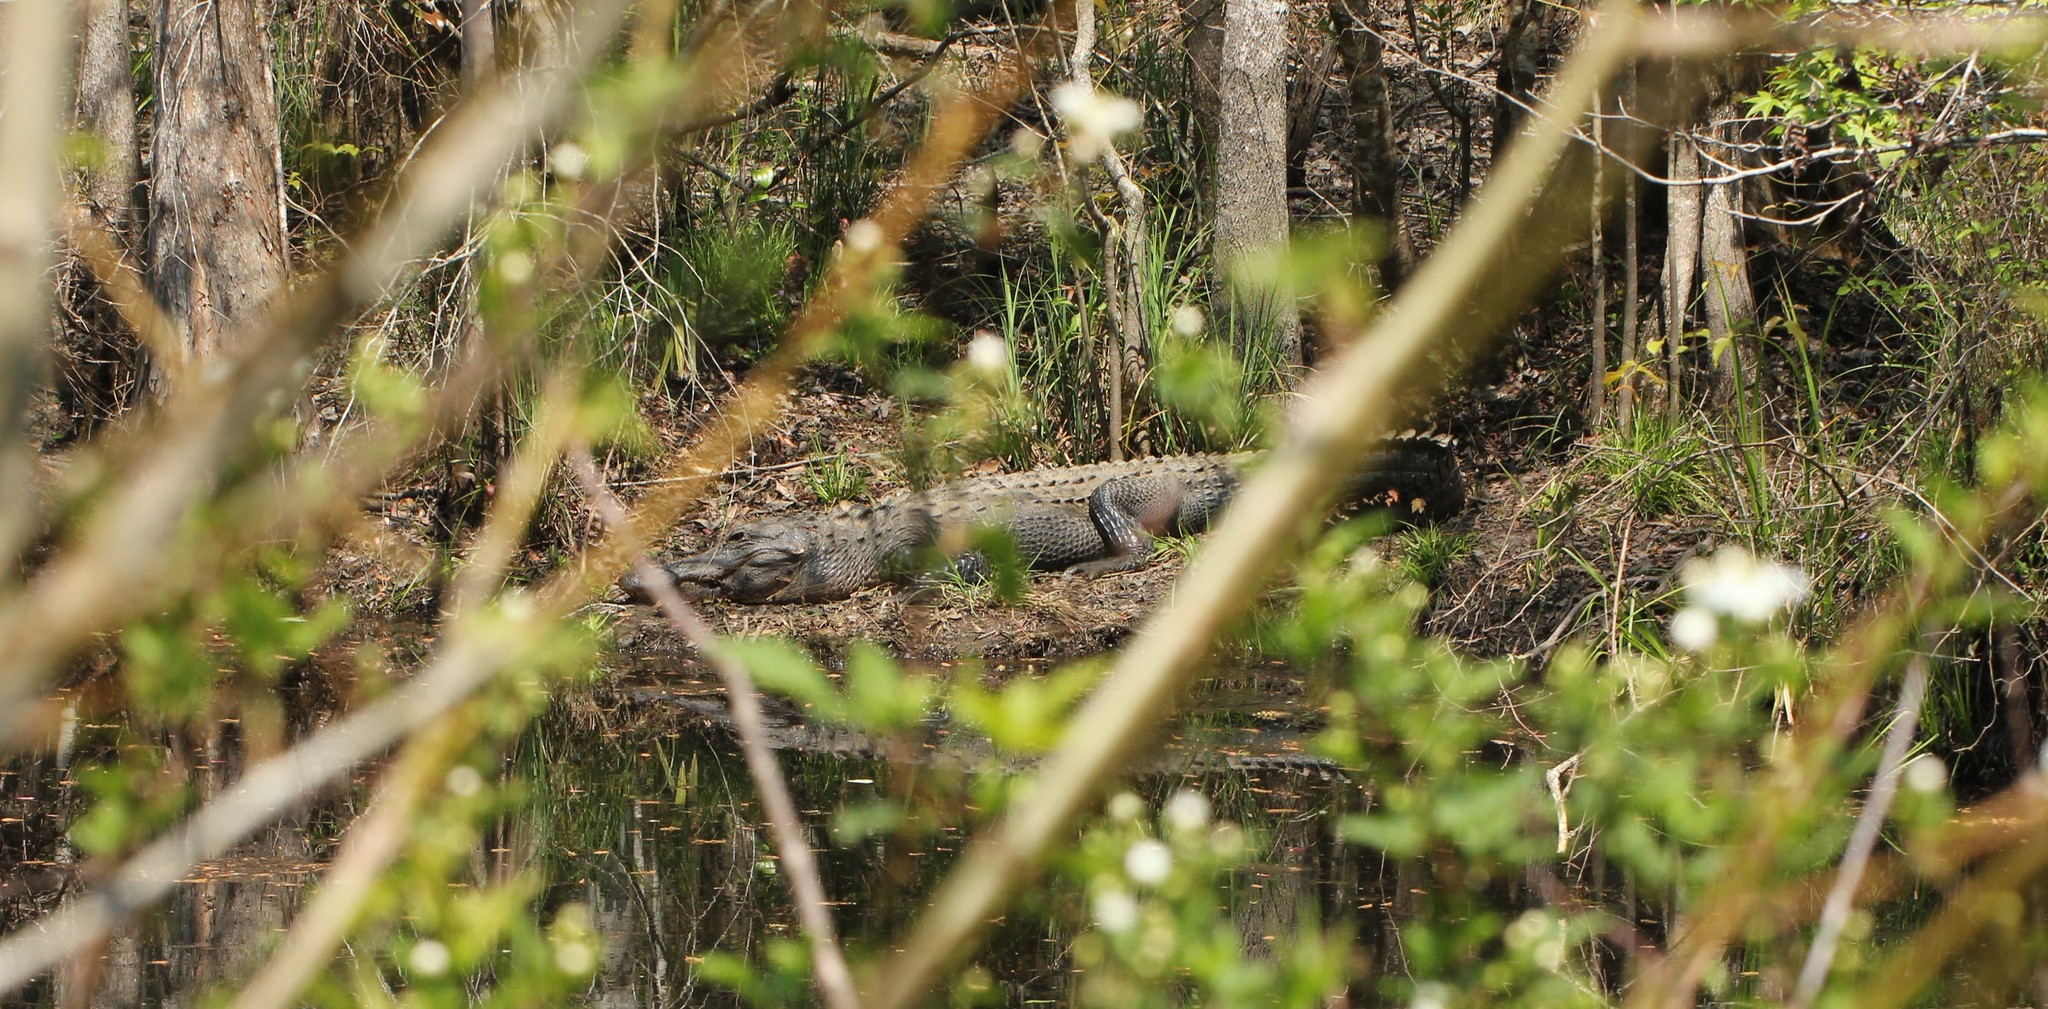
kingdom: Animalia
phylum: Chordata
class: Crocodylia
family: Alligatoridae
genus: Alligator
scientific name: Alligator mississippiensis
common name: American alligator
